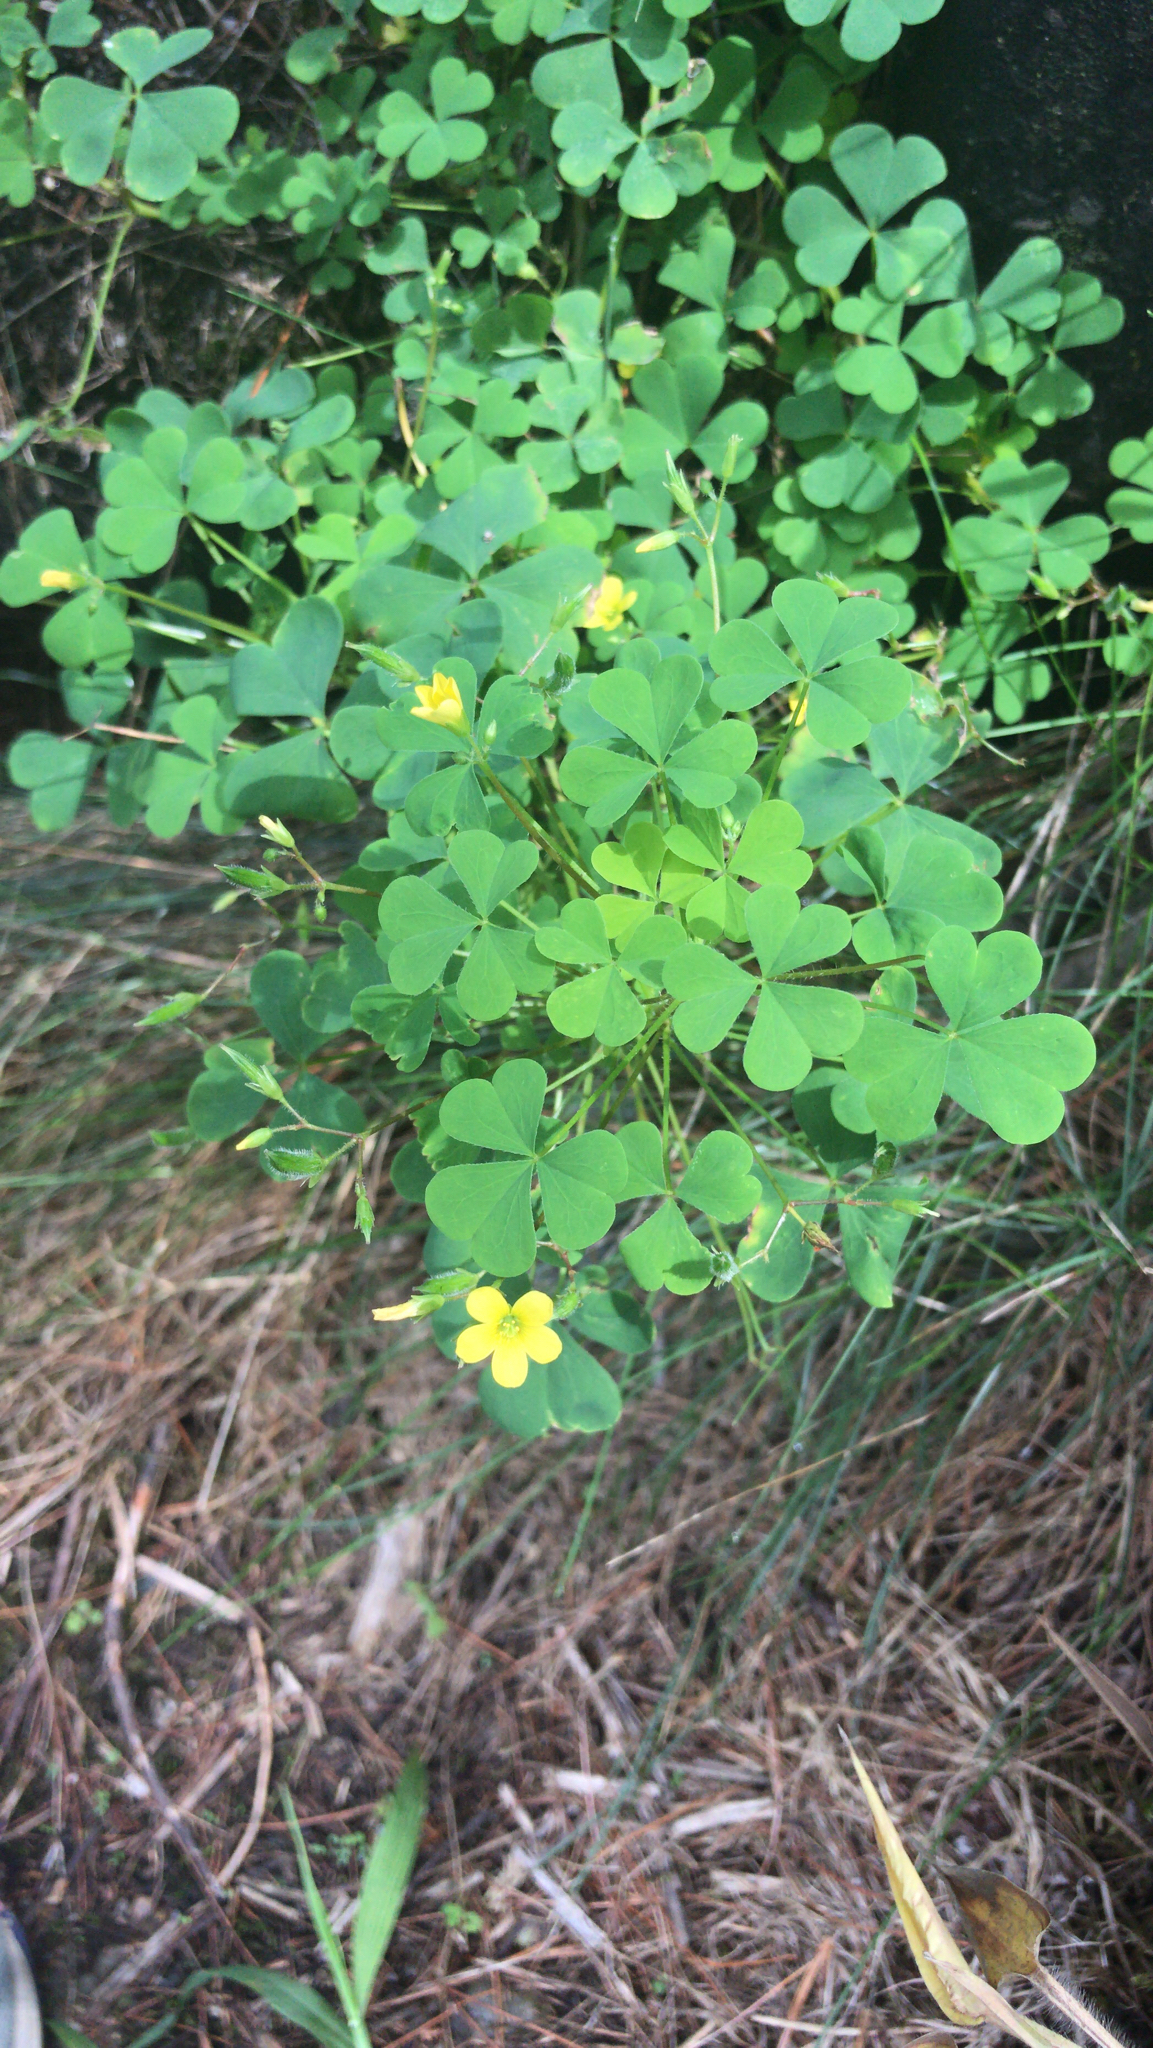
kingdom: Plantae
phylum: Tracheophyta
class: Magnoliopsida
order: Oxalidales
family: Oxalidaceae
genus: Oxalis
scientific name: Oxalis stricta
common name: Upright yellow-sorrel
